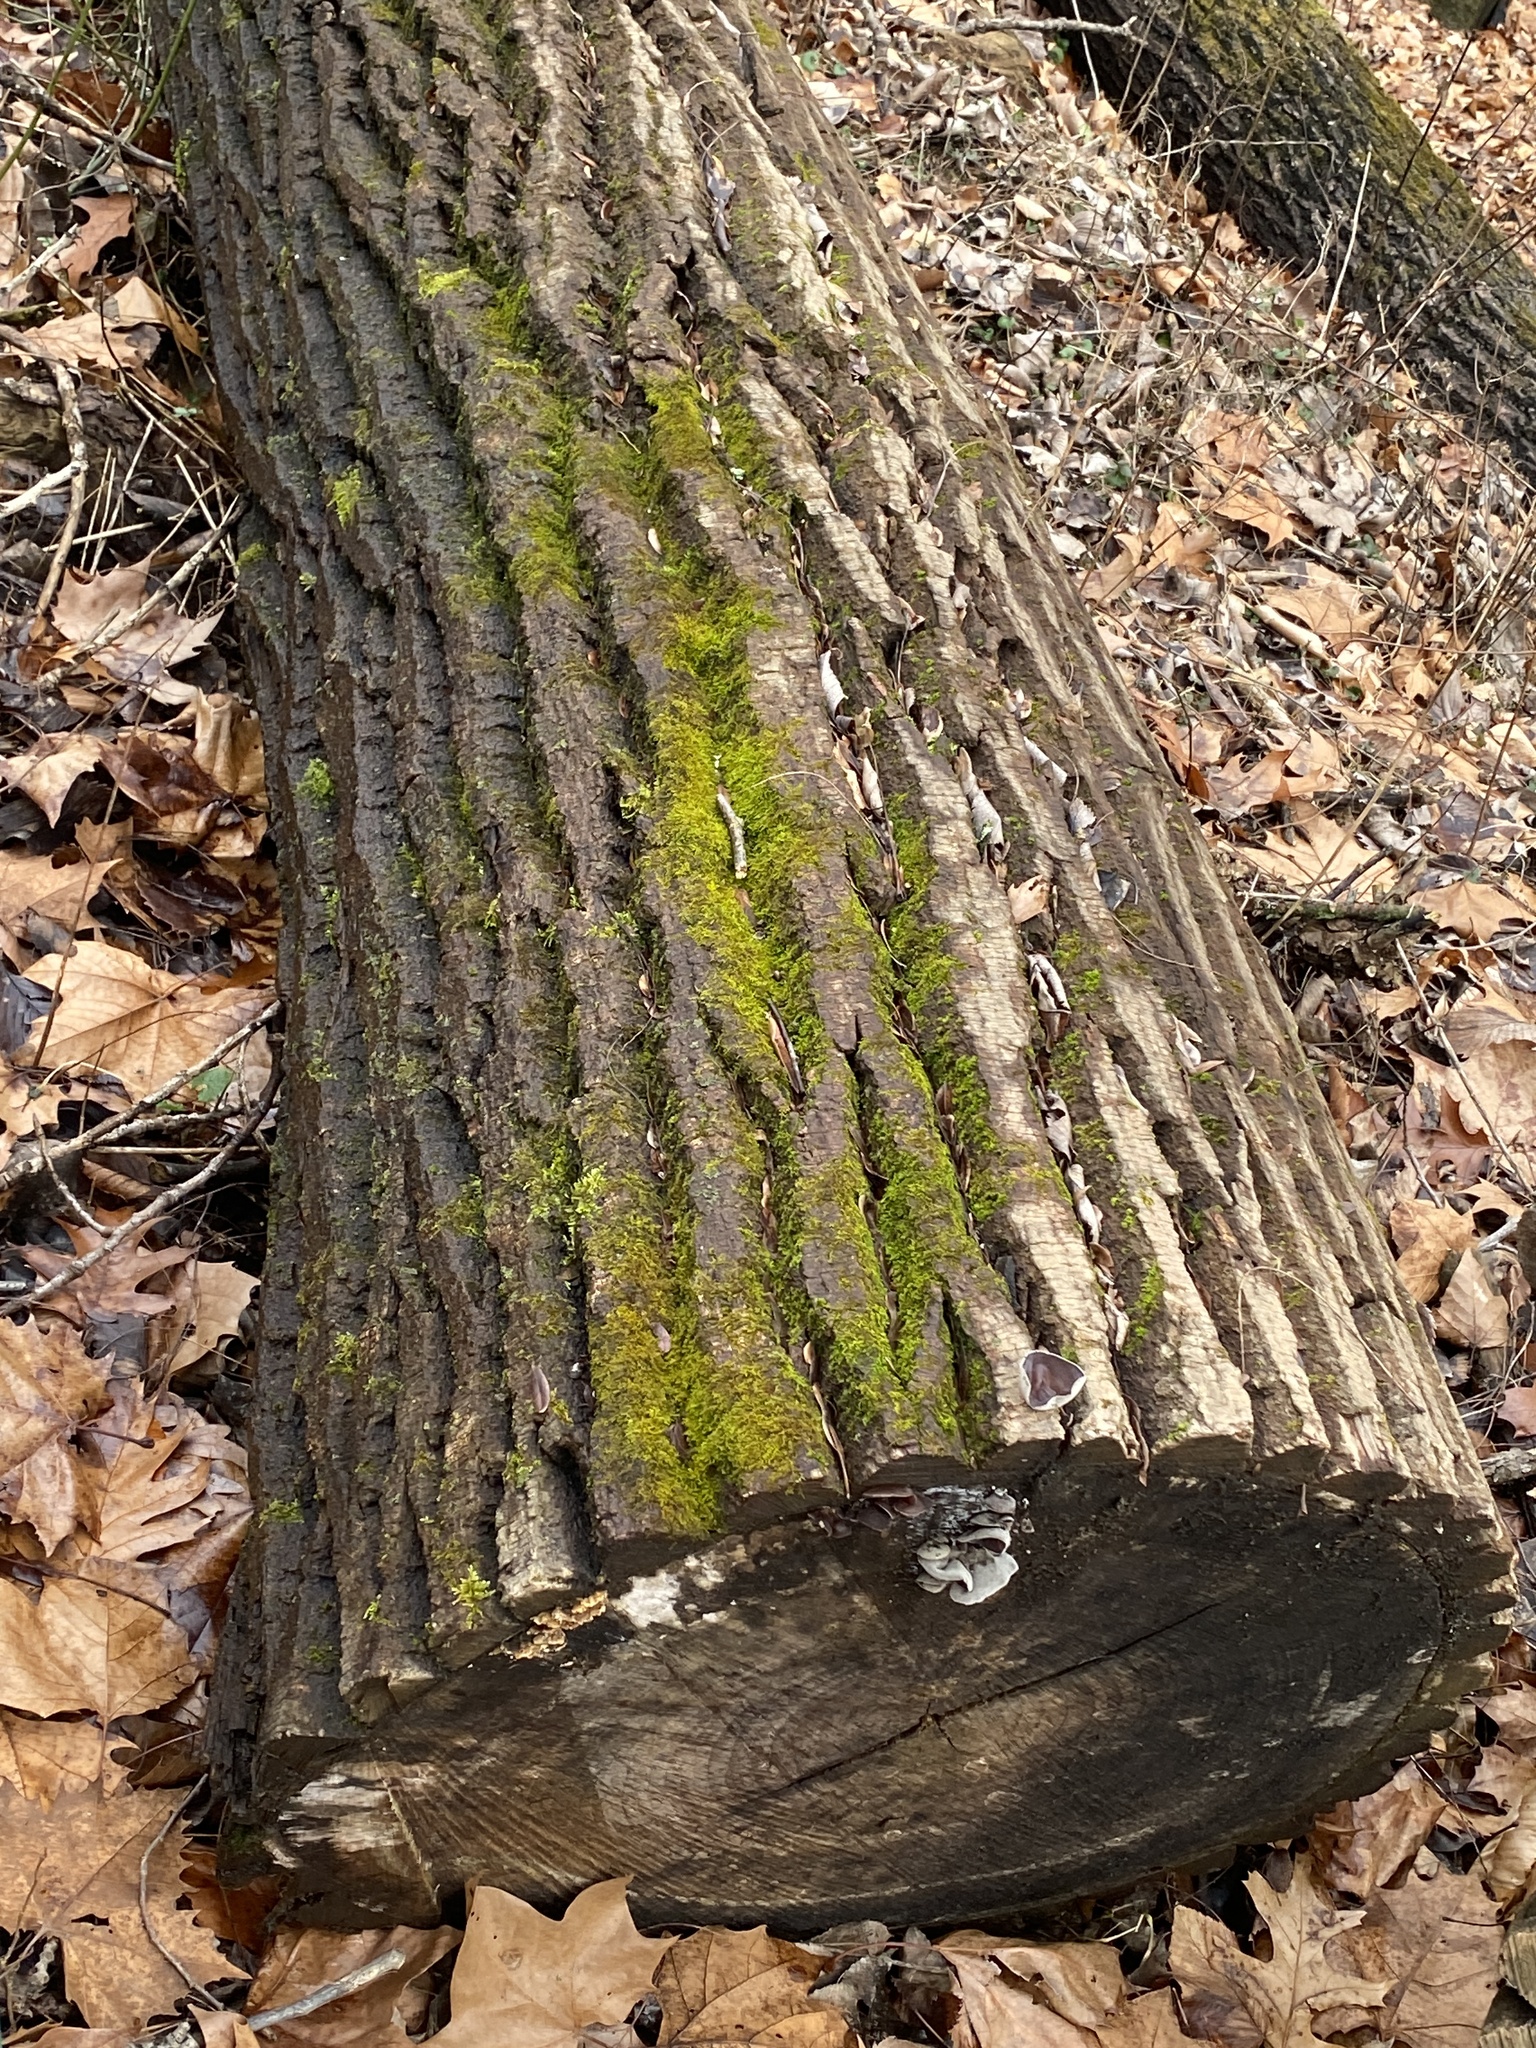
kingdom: Plantae
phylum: Tracheophyta
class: Magnoliopsida
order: Malpighiales
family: Salicaceae
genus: Populus
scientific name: Populus deltoides
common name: Eastern cottonwood
